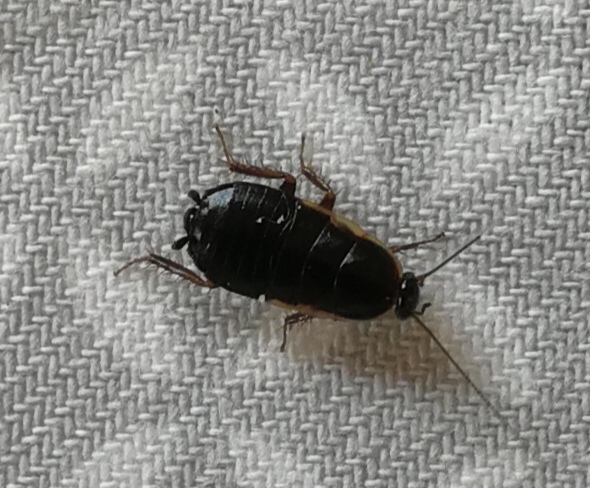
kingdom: Animalia
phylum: Arthropoda
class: Insecta
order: Blattodea
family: Ectobiidae
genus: Loboptera
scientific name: Loboptera canariensis
